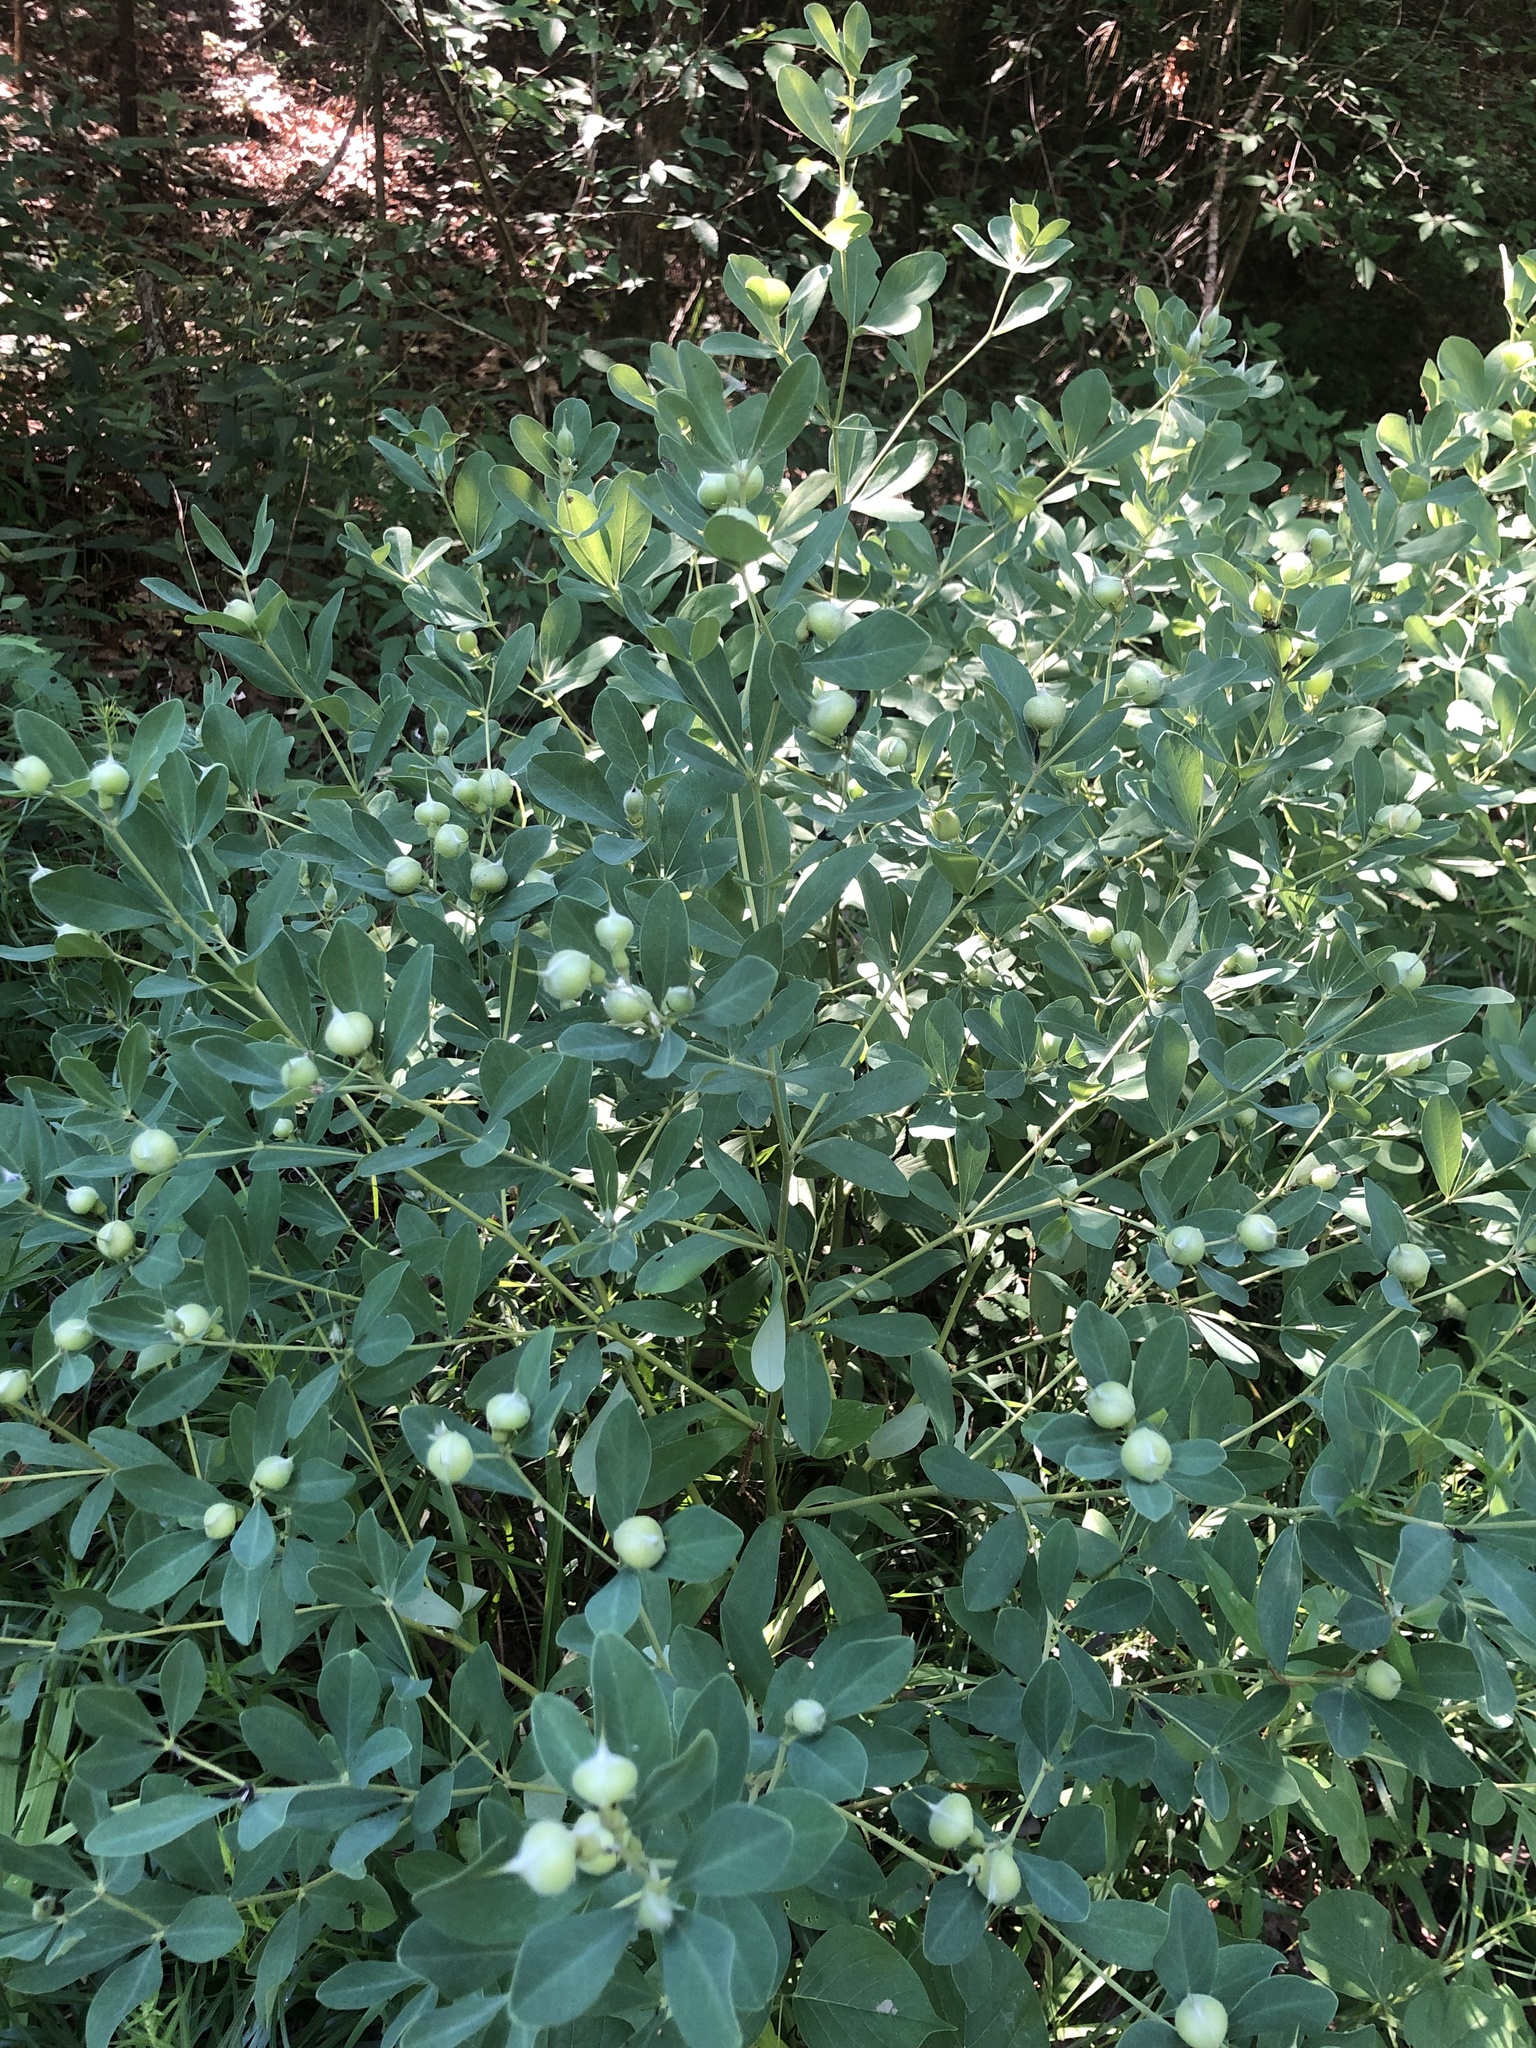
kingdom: Plantae
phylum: Tracheophyta
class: Magnoliopsida
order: Fabales
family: Fabaceae
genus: Baptisia
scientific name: Baptisia nuttalliana
